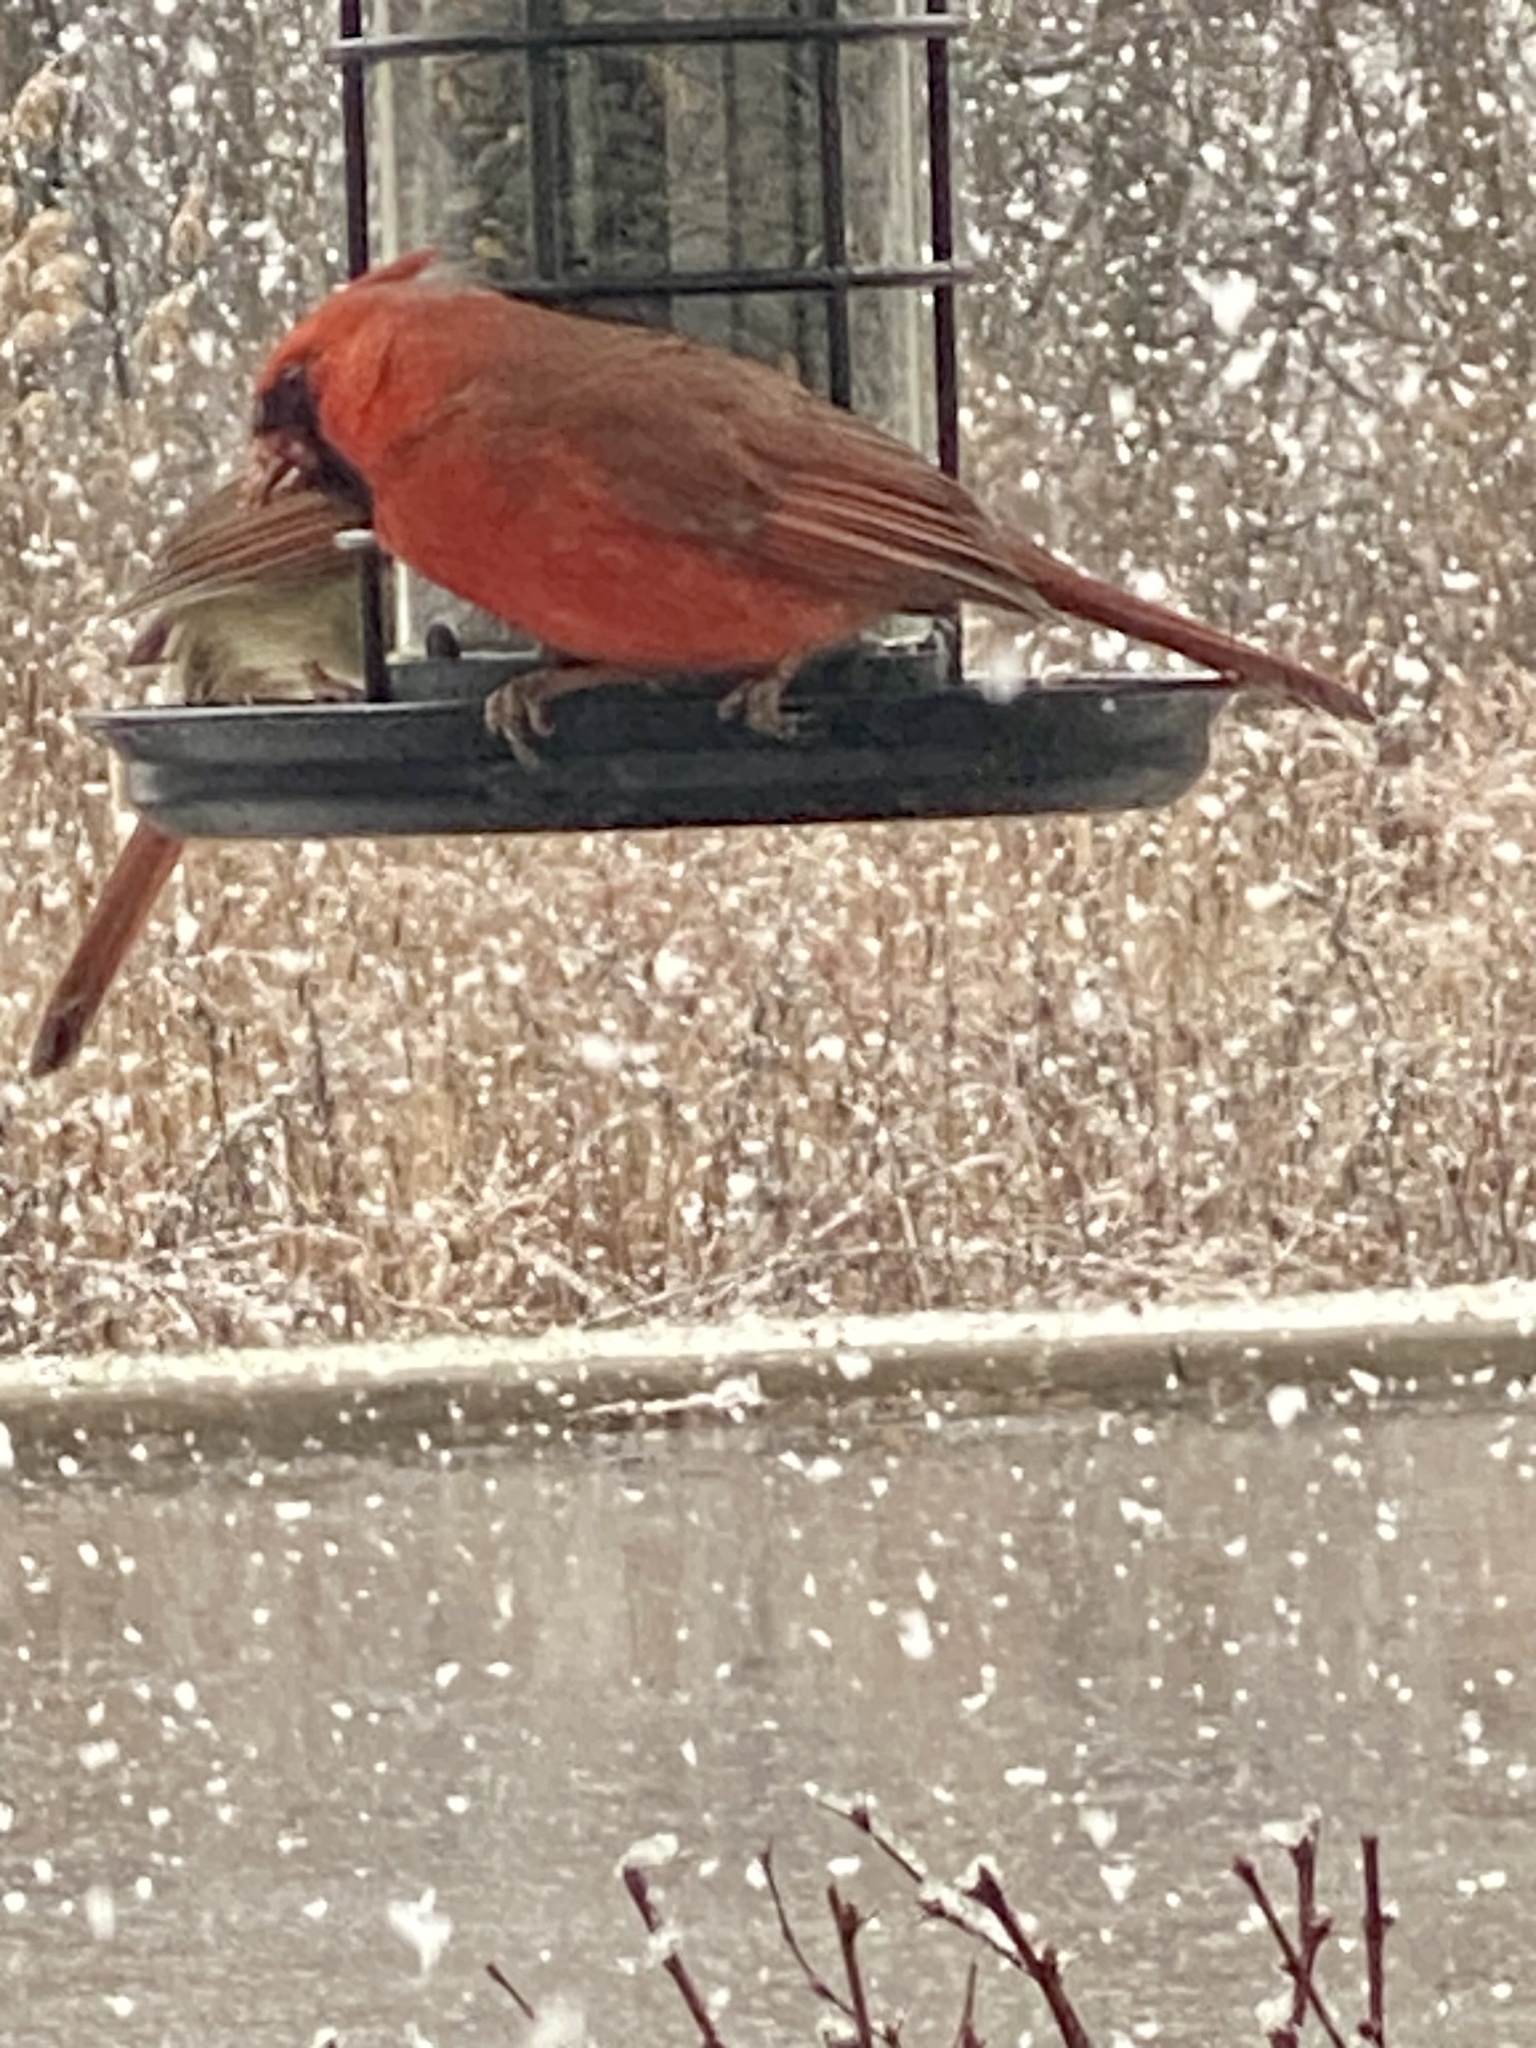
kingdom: Animalia
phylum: Chordata
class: Aves
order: Passeriformes
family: Cardinalidae
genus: Cardinalis
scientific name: Cardinalis cardinalis
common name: Northern cardinal
